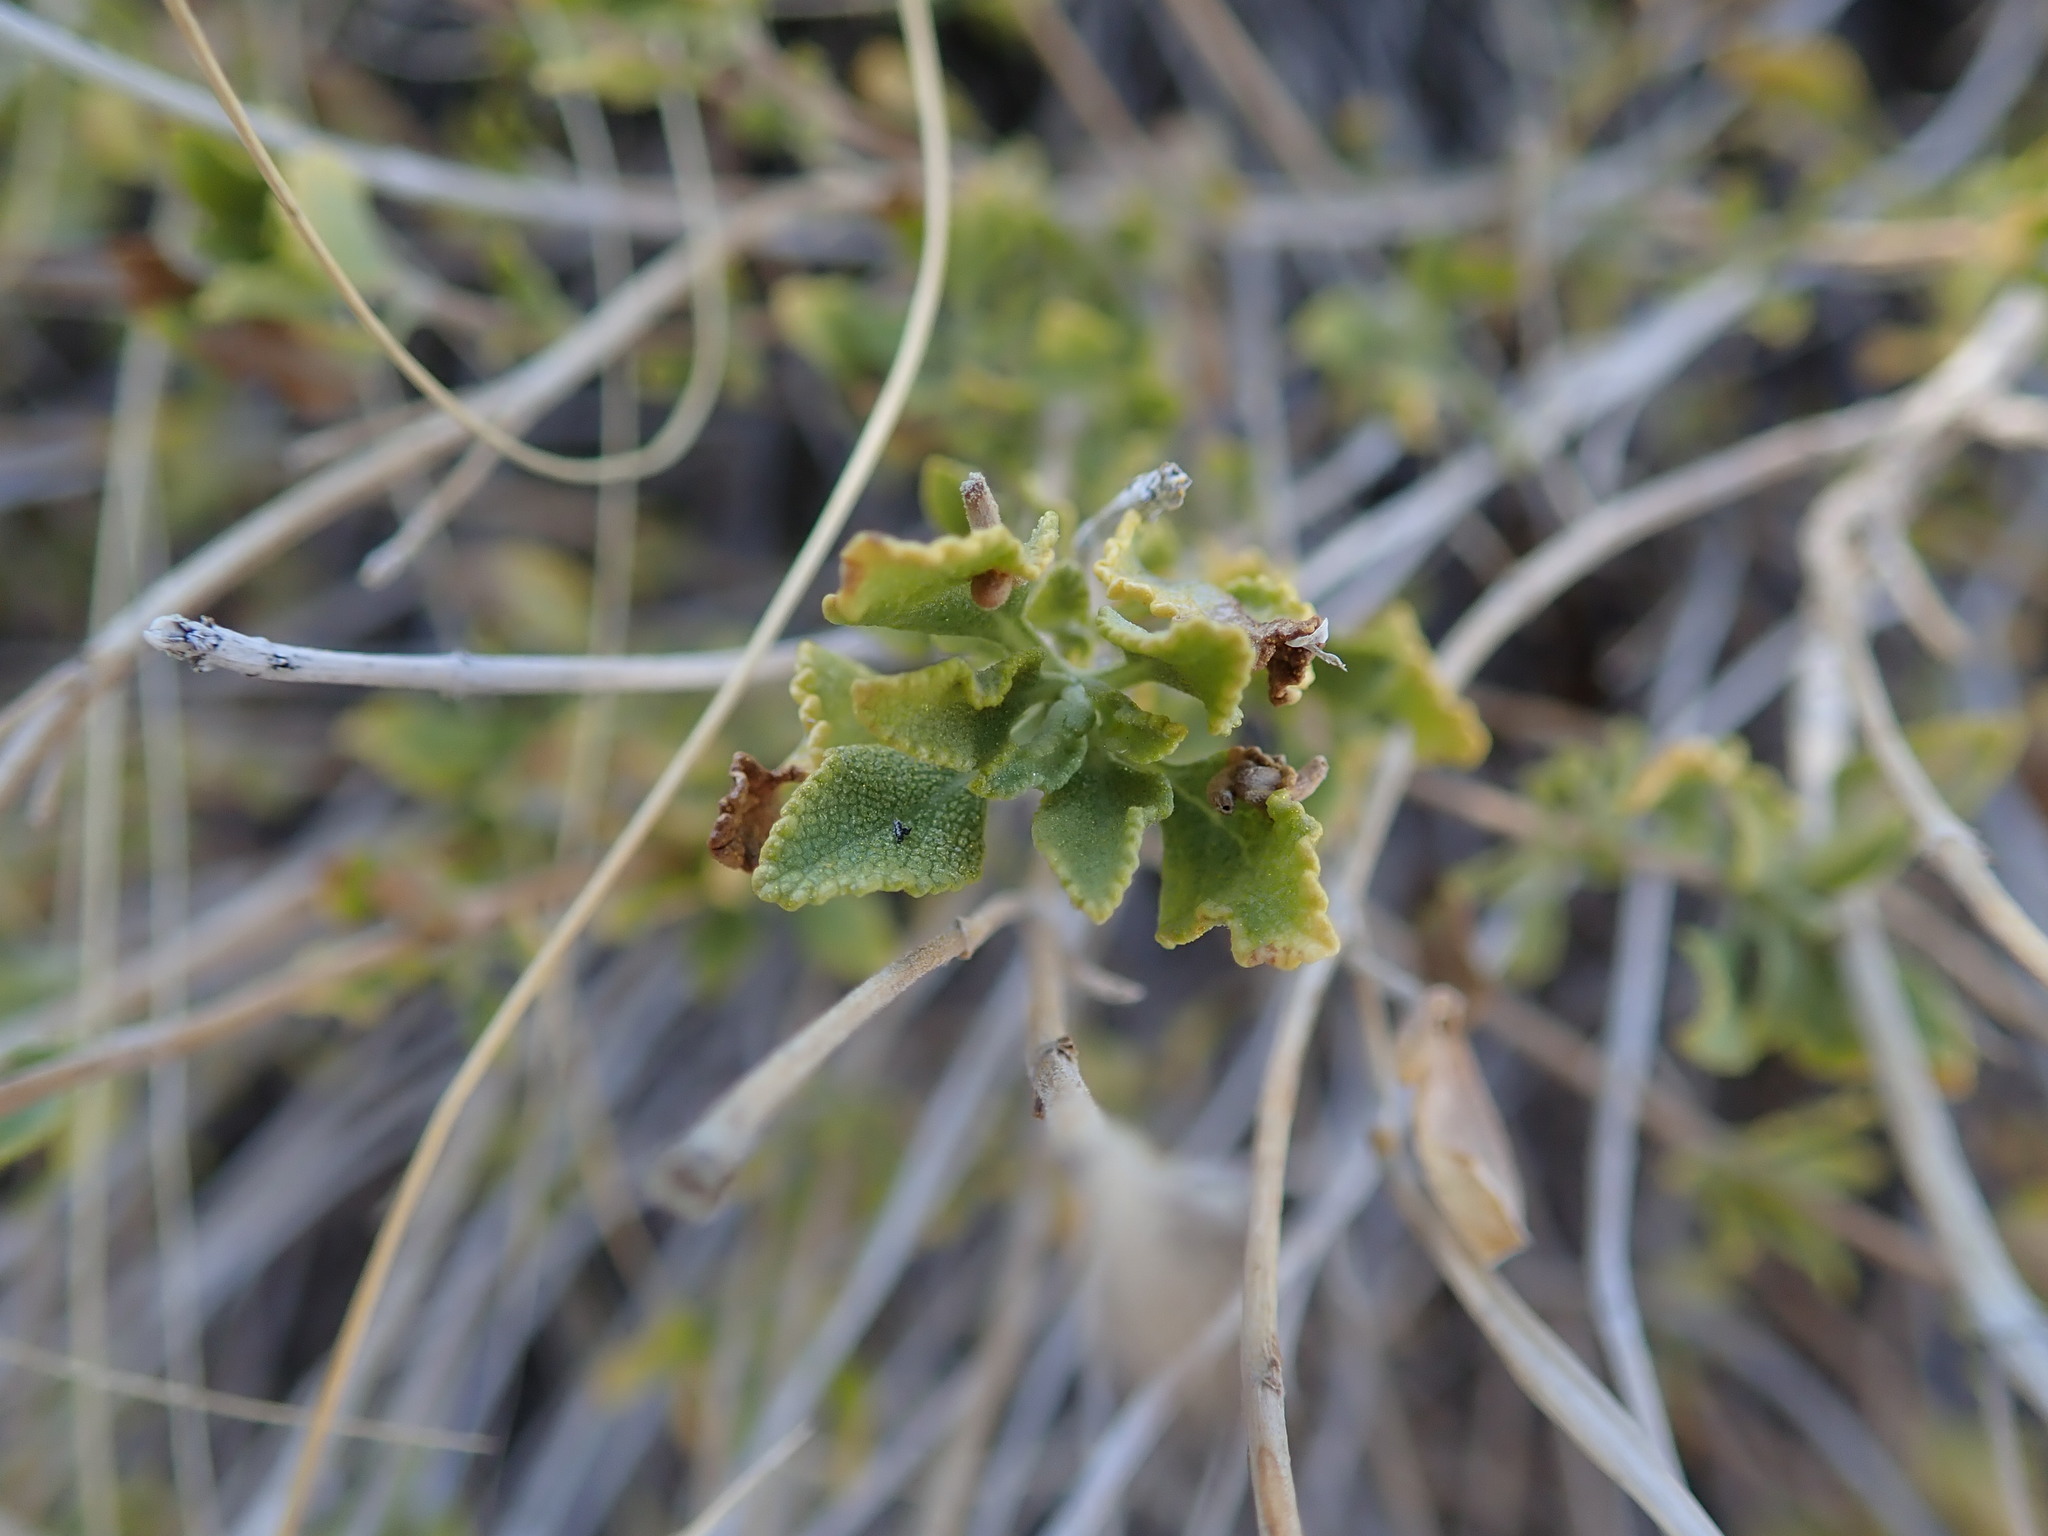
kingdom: Plantae
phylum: Tracheophyta
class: Magnoliopsida
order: Lamiales
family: Lamiaceae
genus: Salvia
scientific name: Salvia mohavensis
